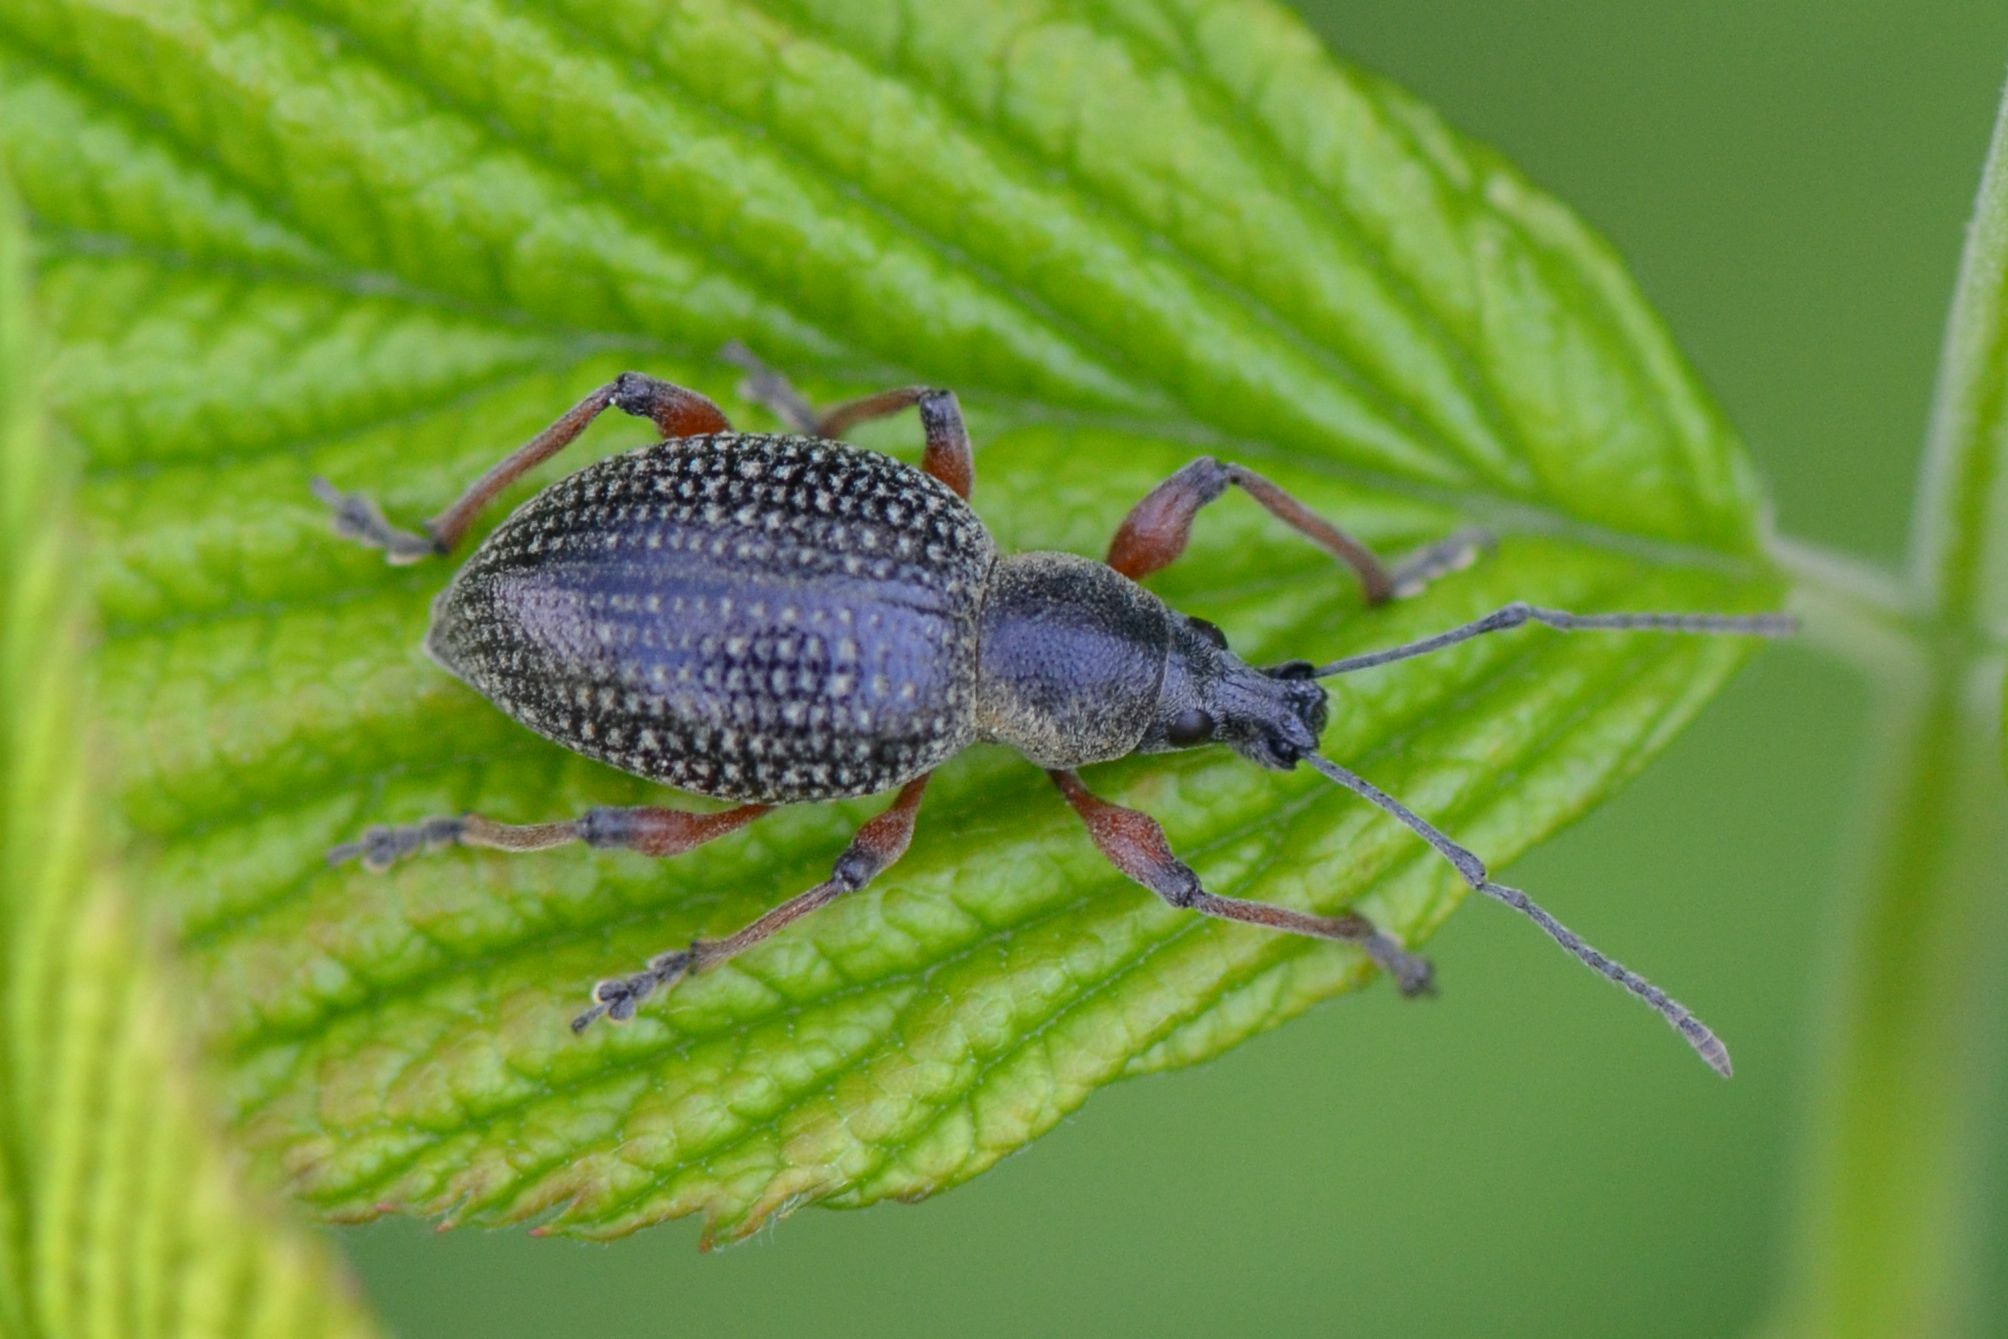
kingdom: Animalia
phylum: Arthropoda
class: Insecta
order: Coleoptera
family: Curculionidae
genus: Otiorhynchus
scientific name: Otiorhynchus coecus
